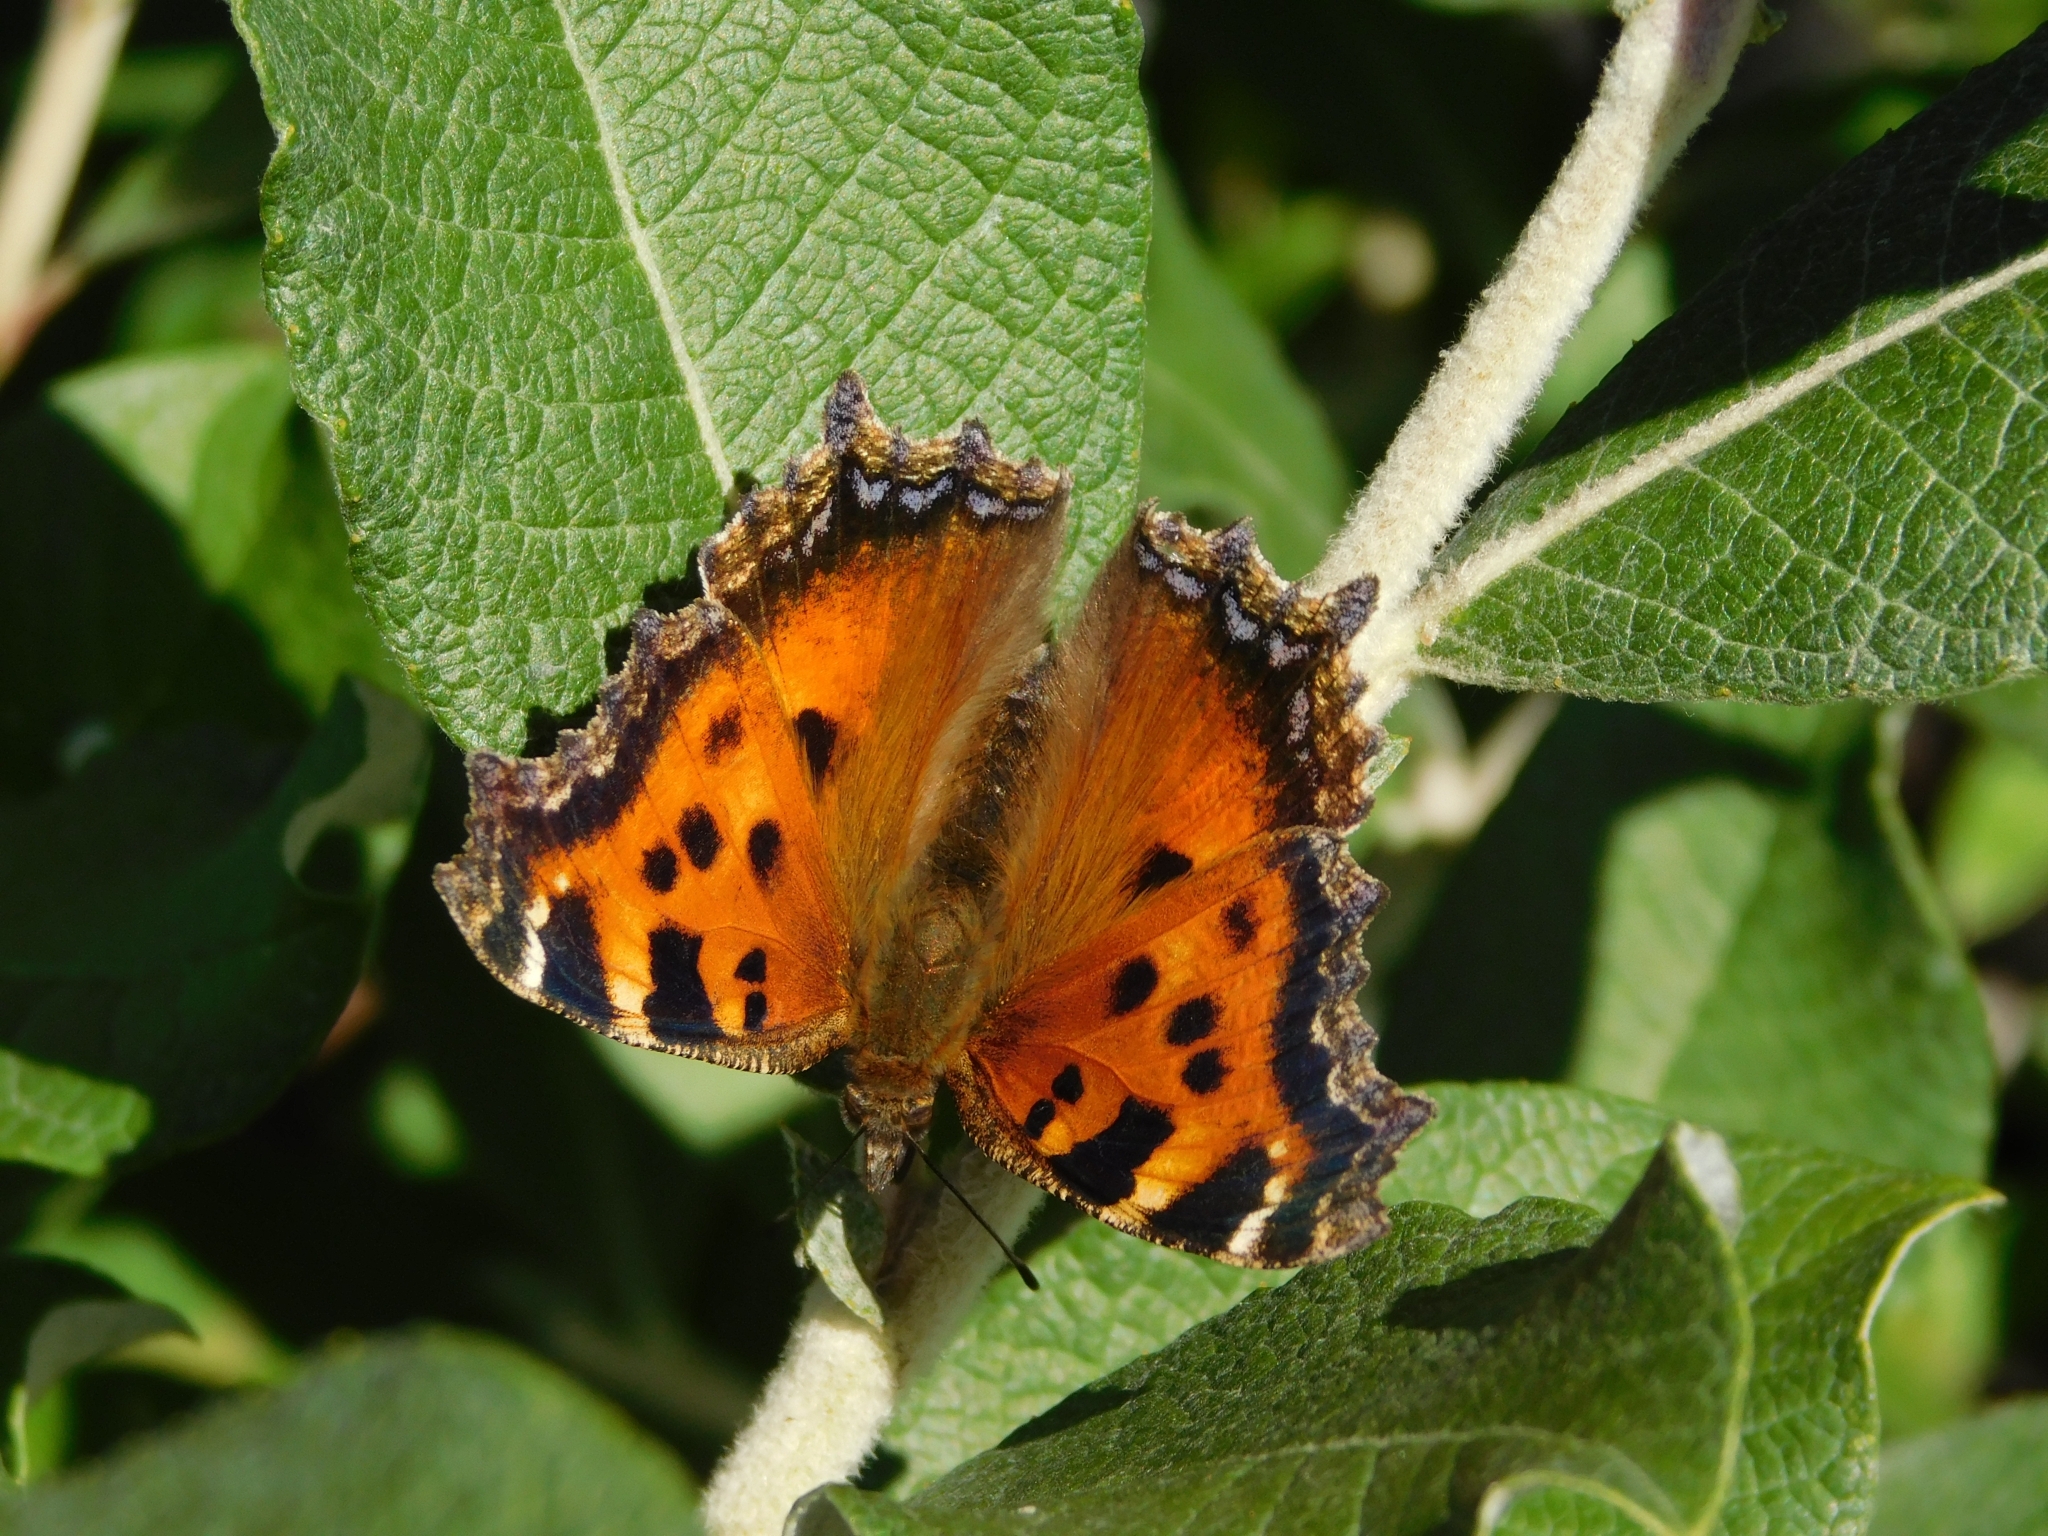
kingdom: Animalia
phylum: Arthropoda
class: Insecta
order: Lepidoptera
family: Nymphalidae
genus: Nymphalis
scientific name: Nymphalis xanthomelas
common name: Scarce tortoiseshell
